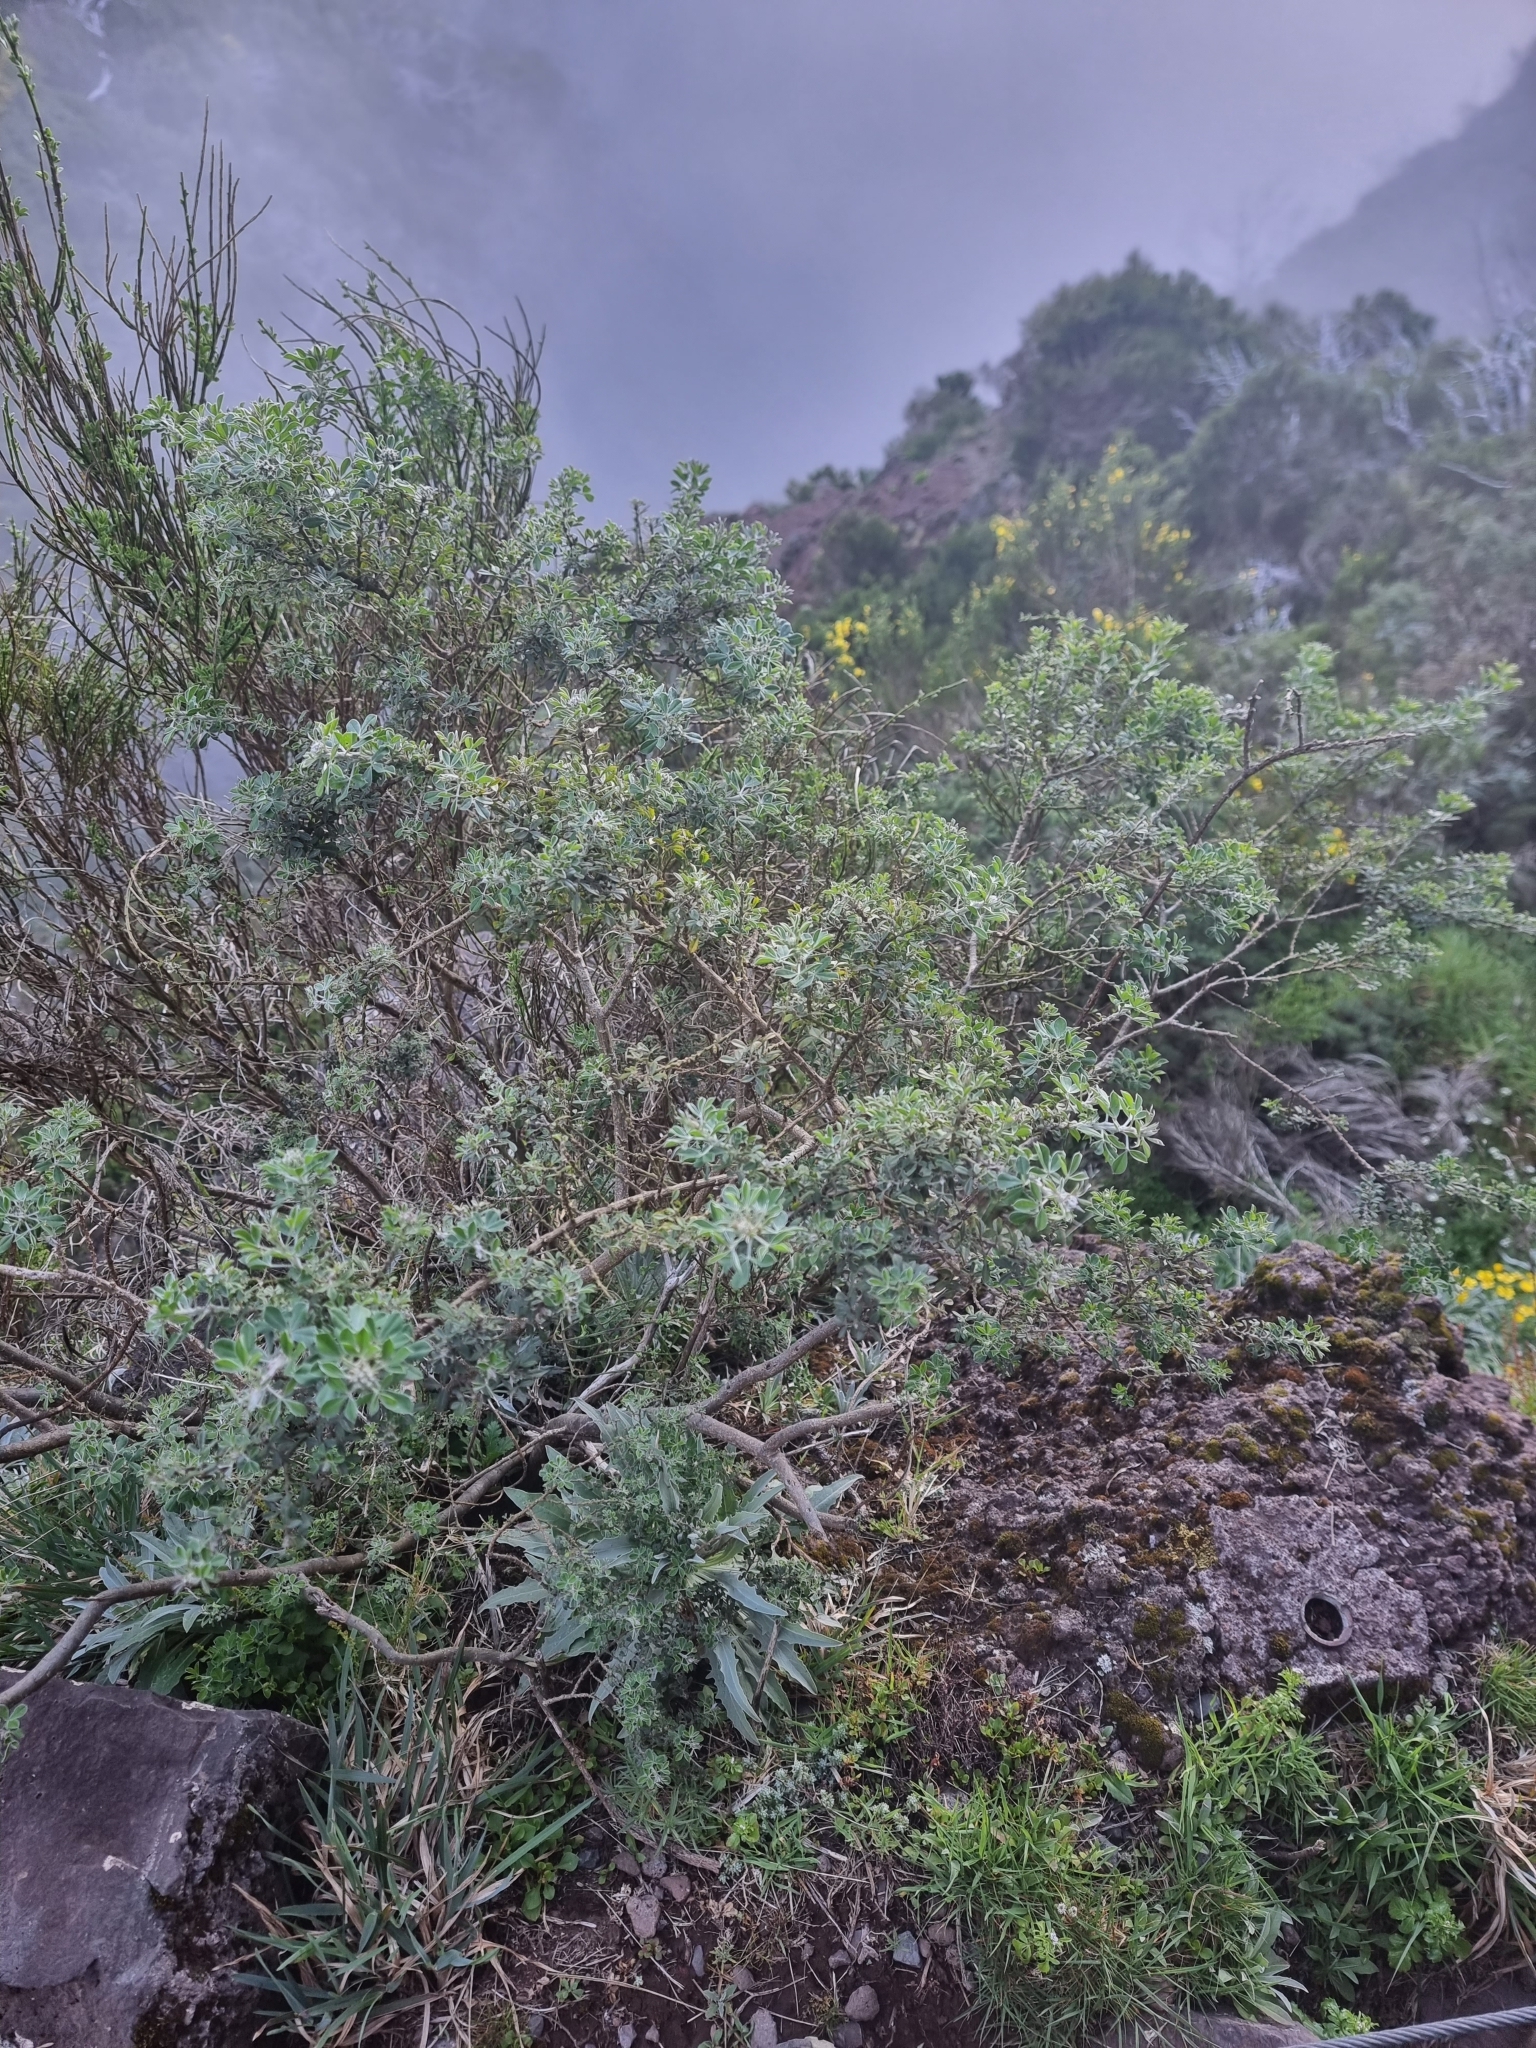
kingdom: Plantae
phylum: Tracheophyta
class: Magnoliopsida
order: Fabales
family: Fabaceae
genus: Genista
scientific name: Genista maderensis
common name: Madeira dyer's greenweed
